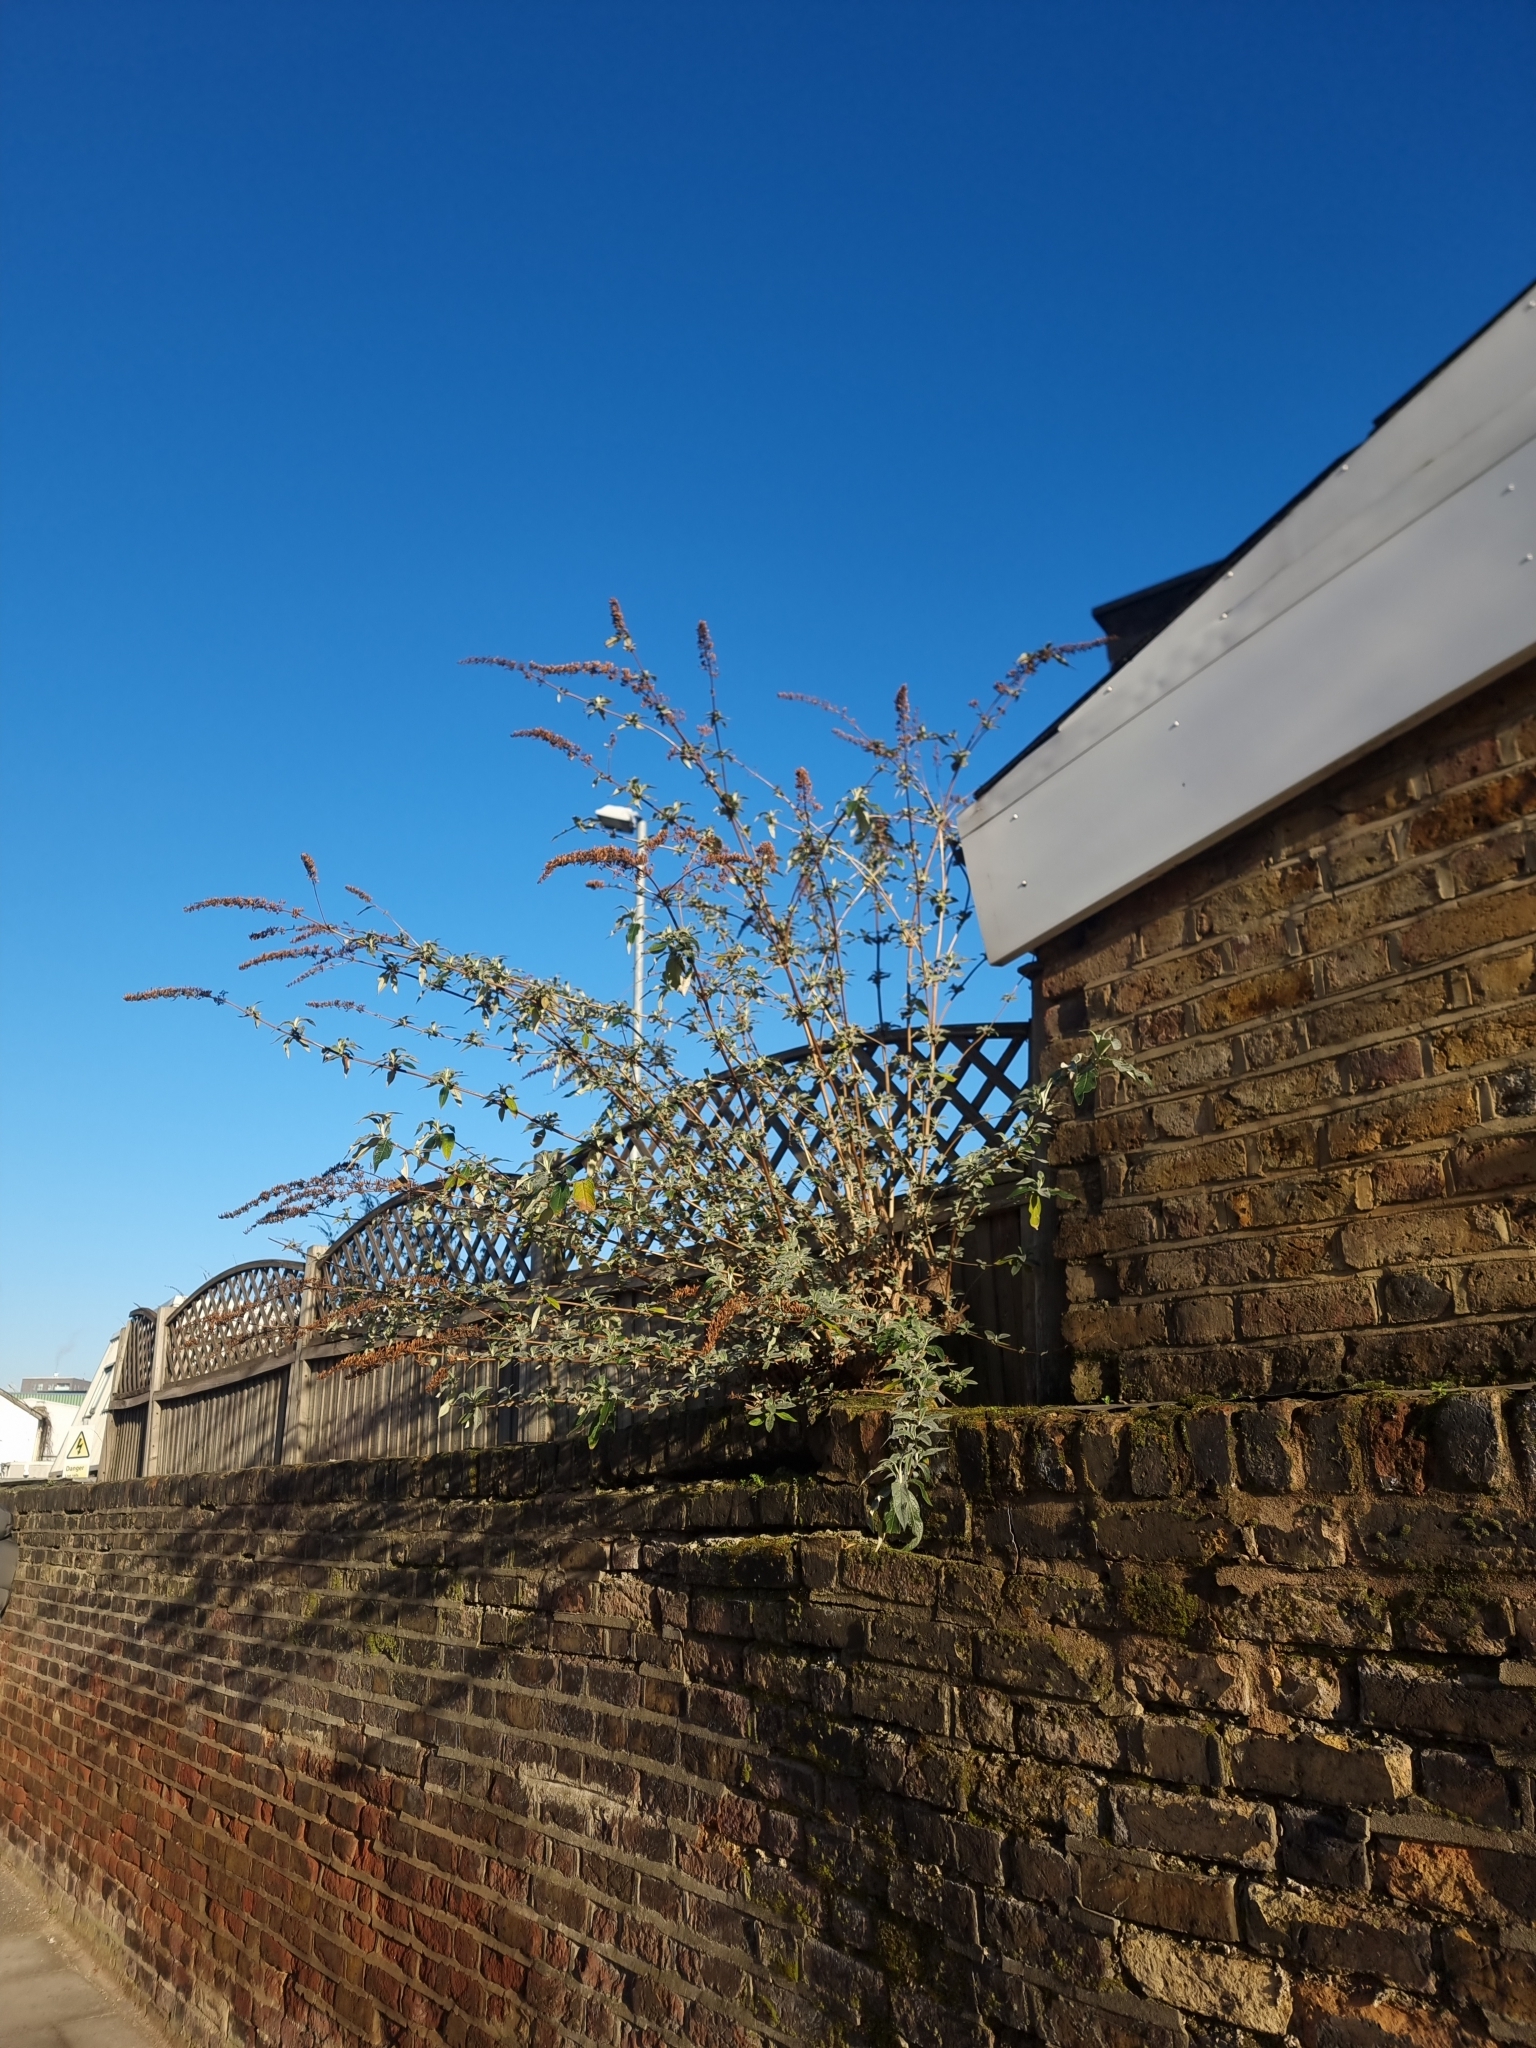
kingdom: Plantae
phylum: Tracheophyta
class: Magnoliopsida
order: Lamiales
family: Scrophulariaceae
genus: Buddleja
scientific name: Buddleja davidii
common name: Butterfly-bush
